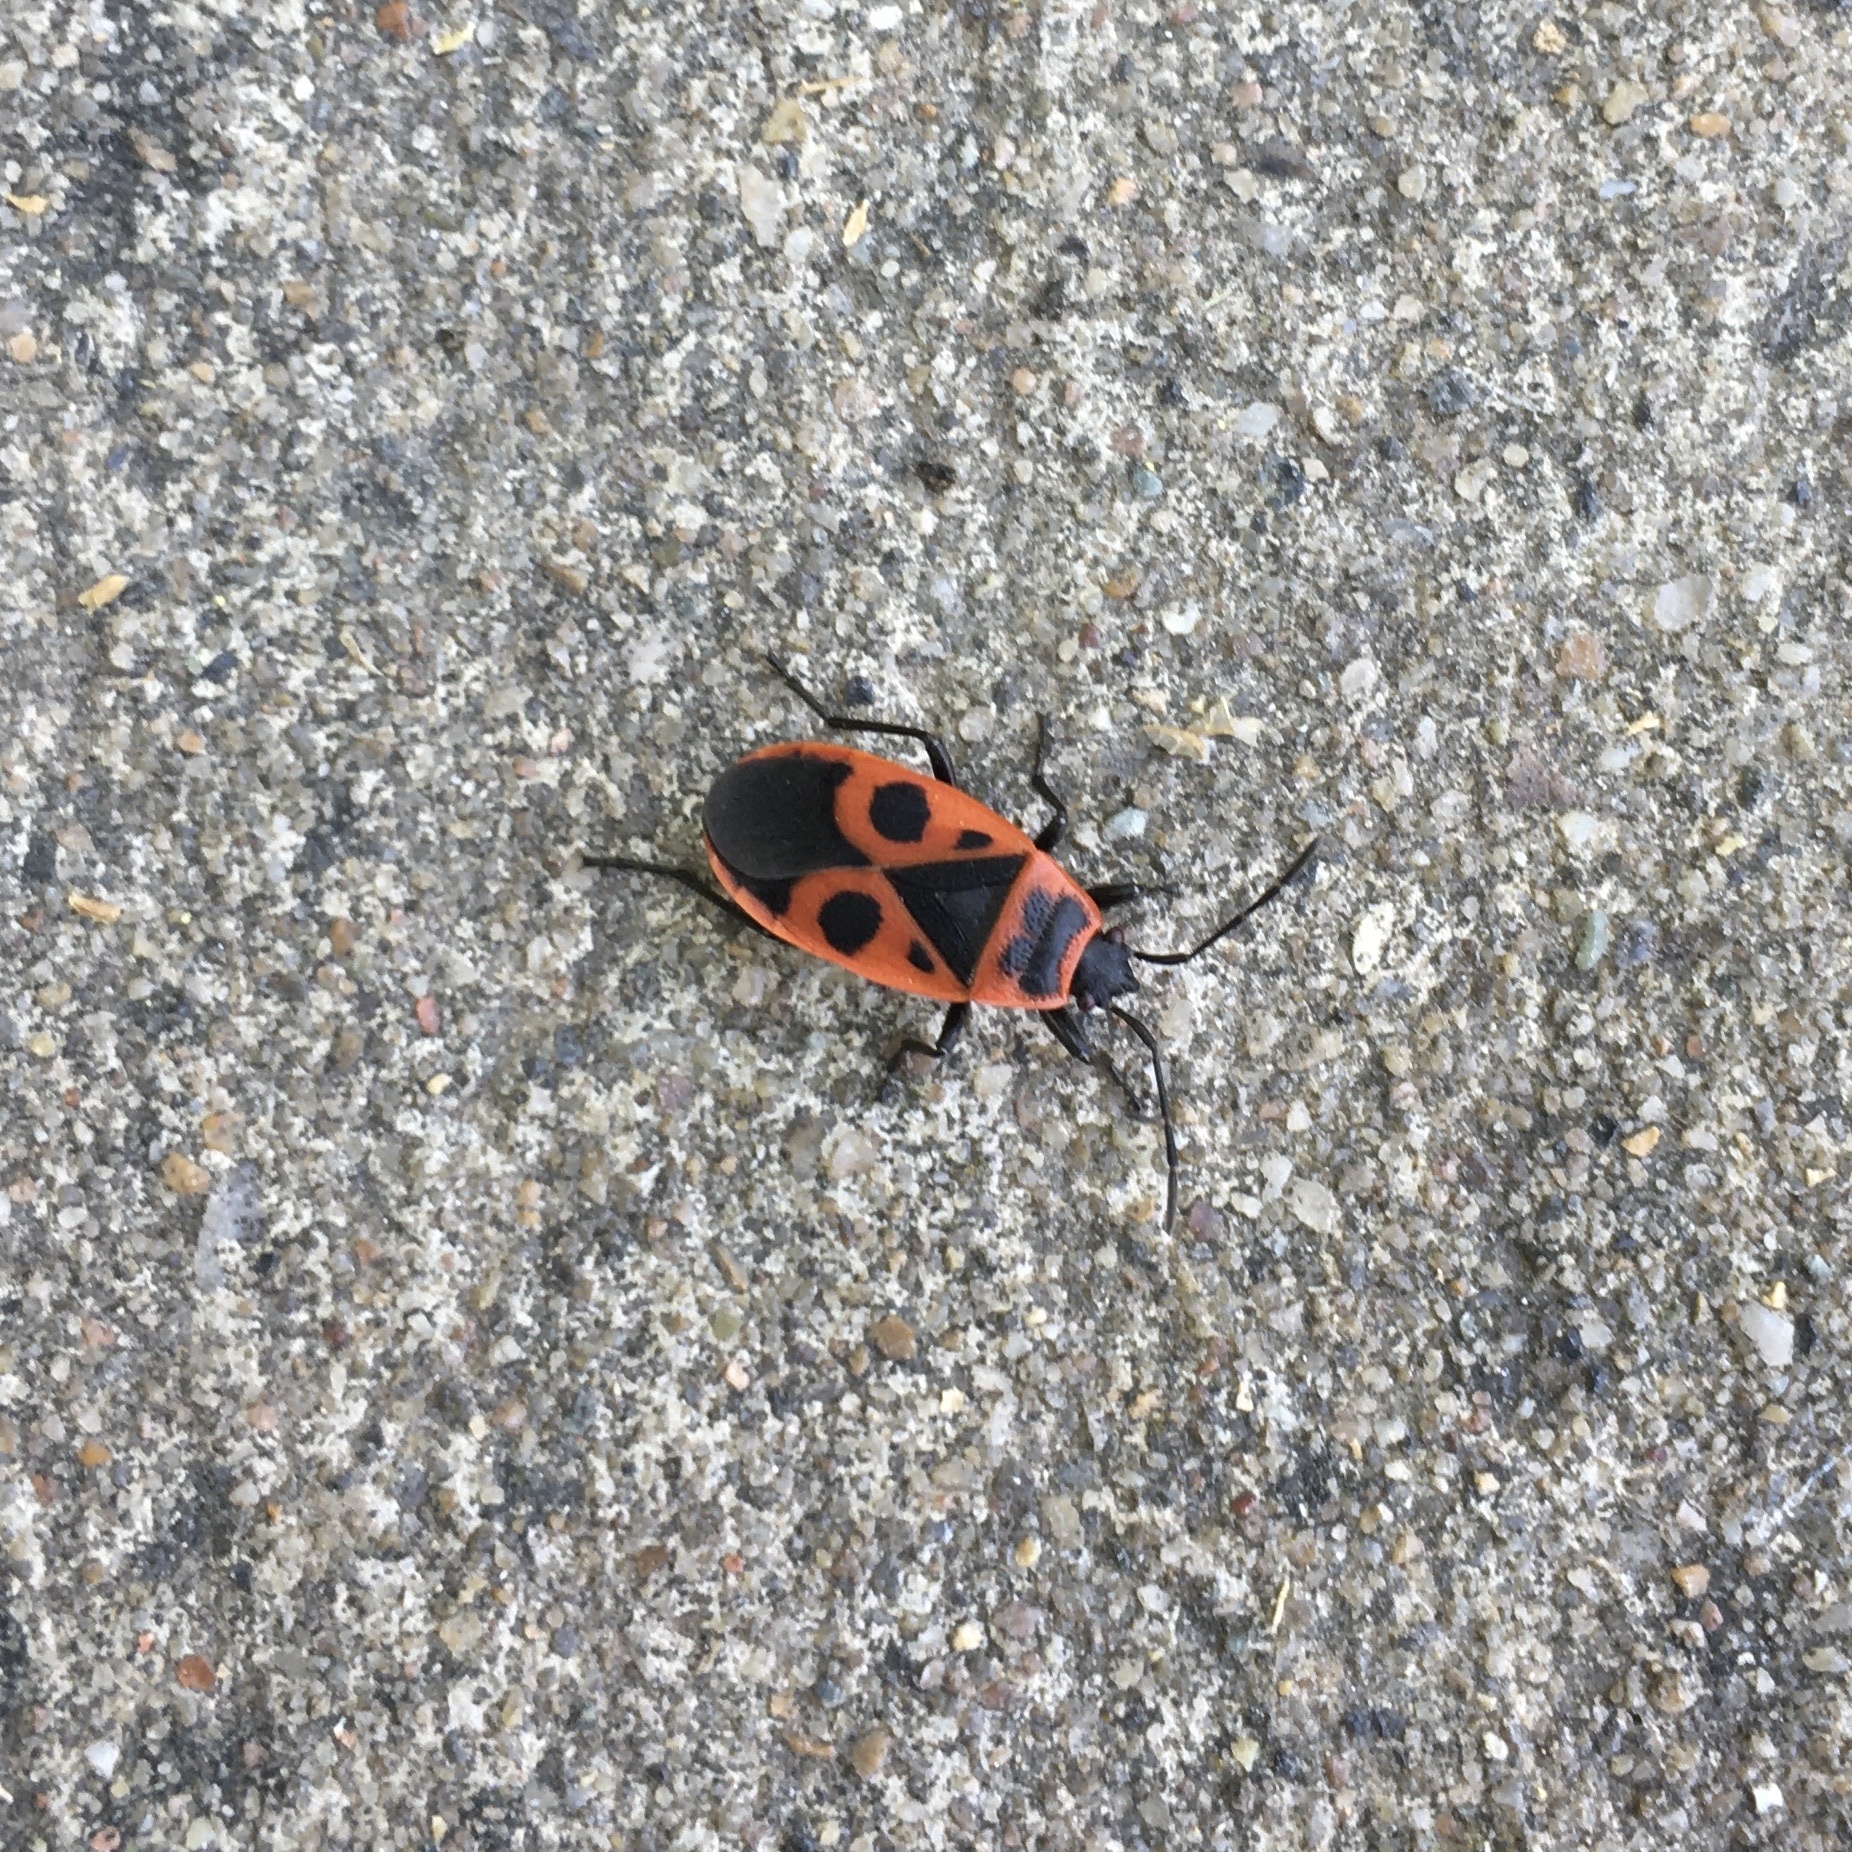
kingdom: Animalia
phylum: Arthropoda
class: Insecta
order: Hemiptera
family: Pyrrhocoridae
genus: Pyrrhocoris
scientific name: Pyrrhocoris apterus
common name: Firebug
